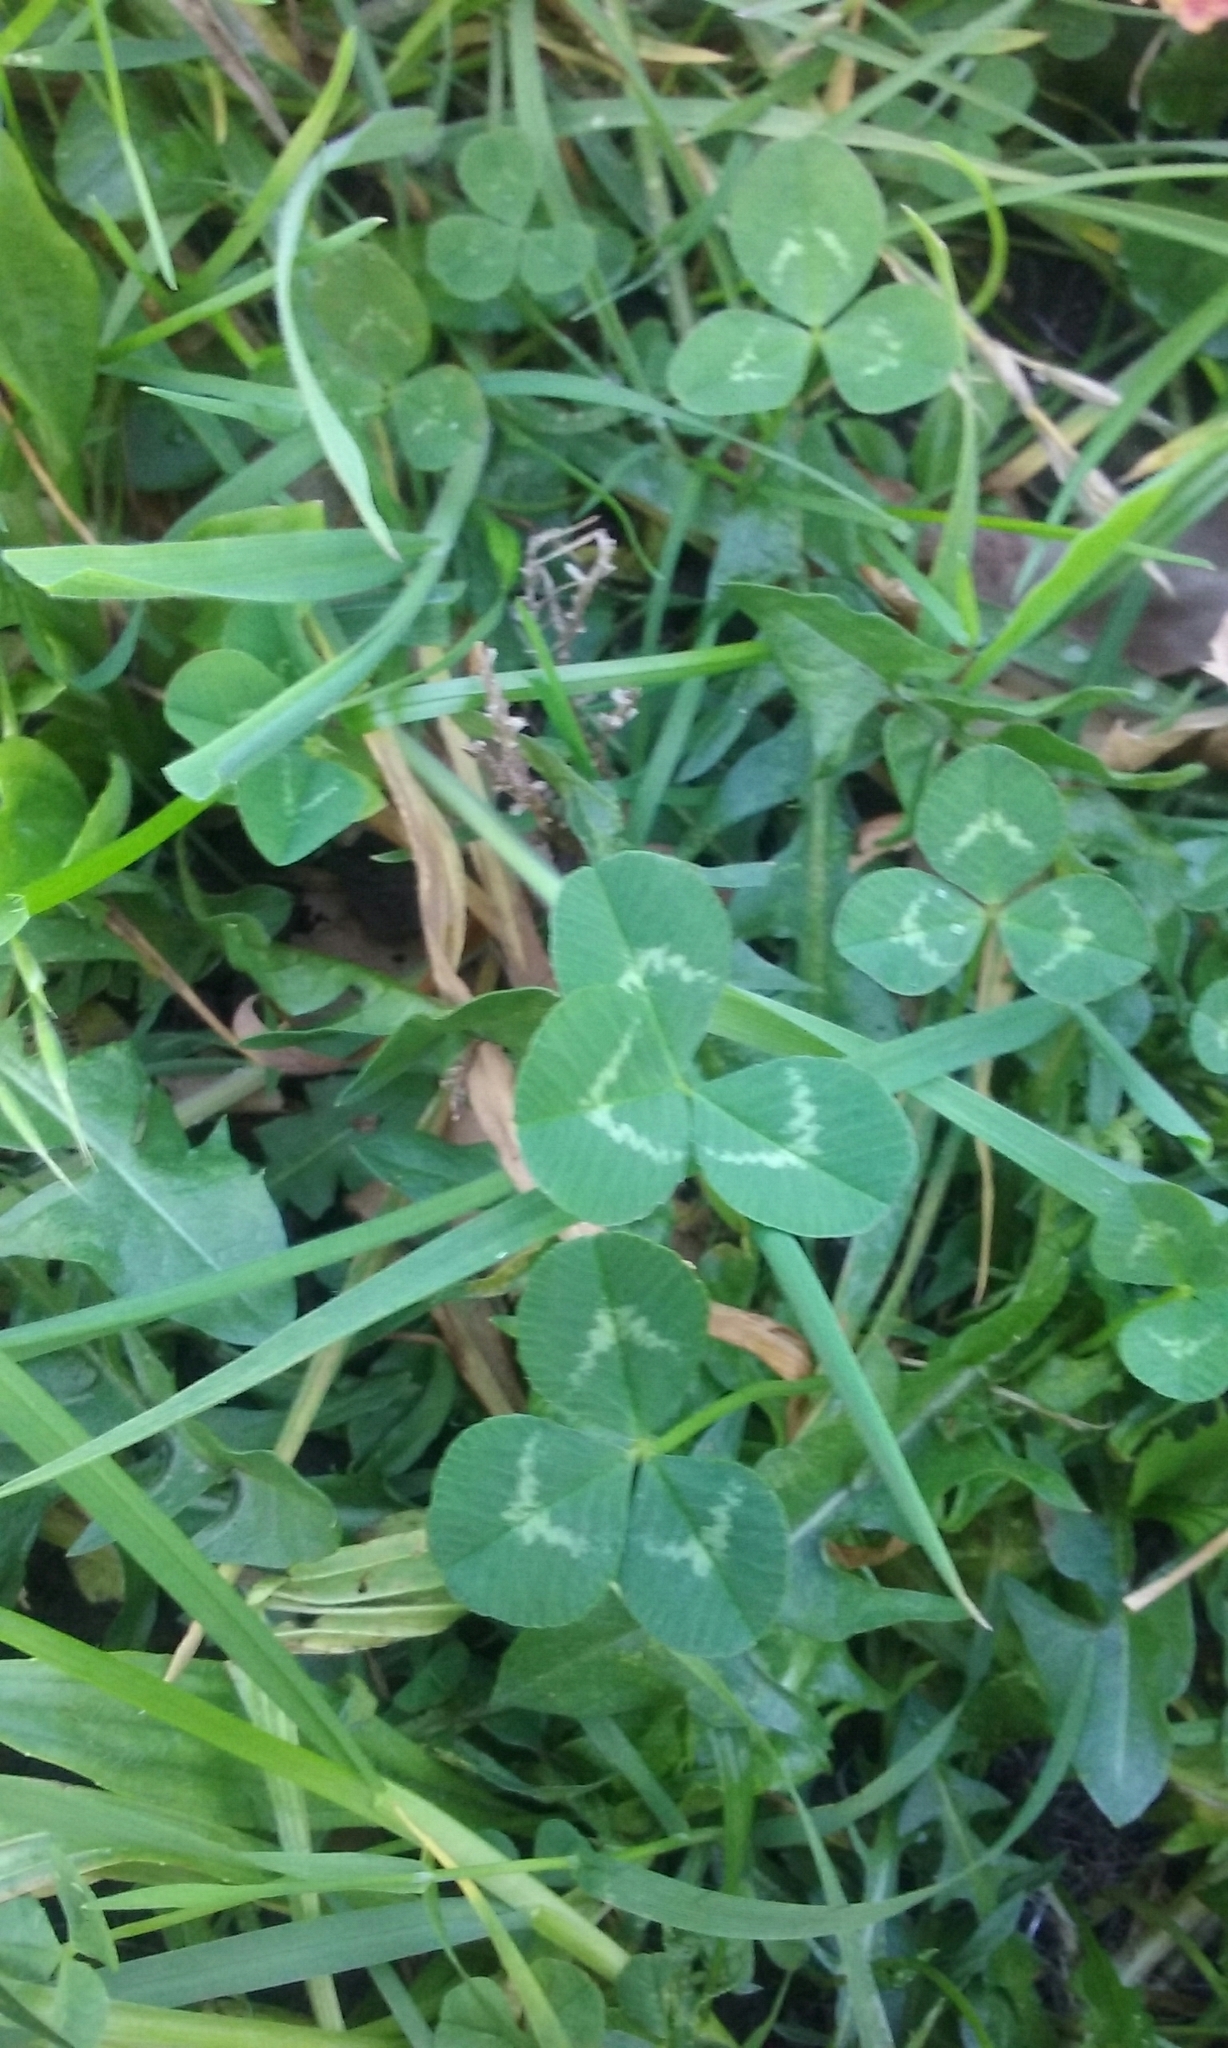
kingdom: Plantae
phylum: Tracheophyta
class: Magnoliopsida
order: Fabales
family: Fabaceae
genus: Trifolium
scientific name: Trifolium repens
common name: White clover
